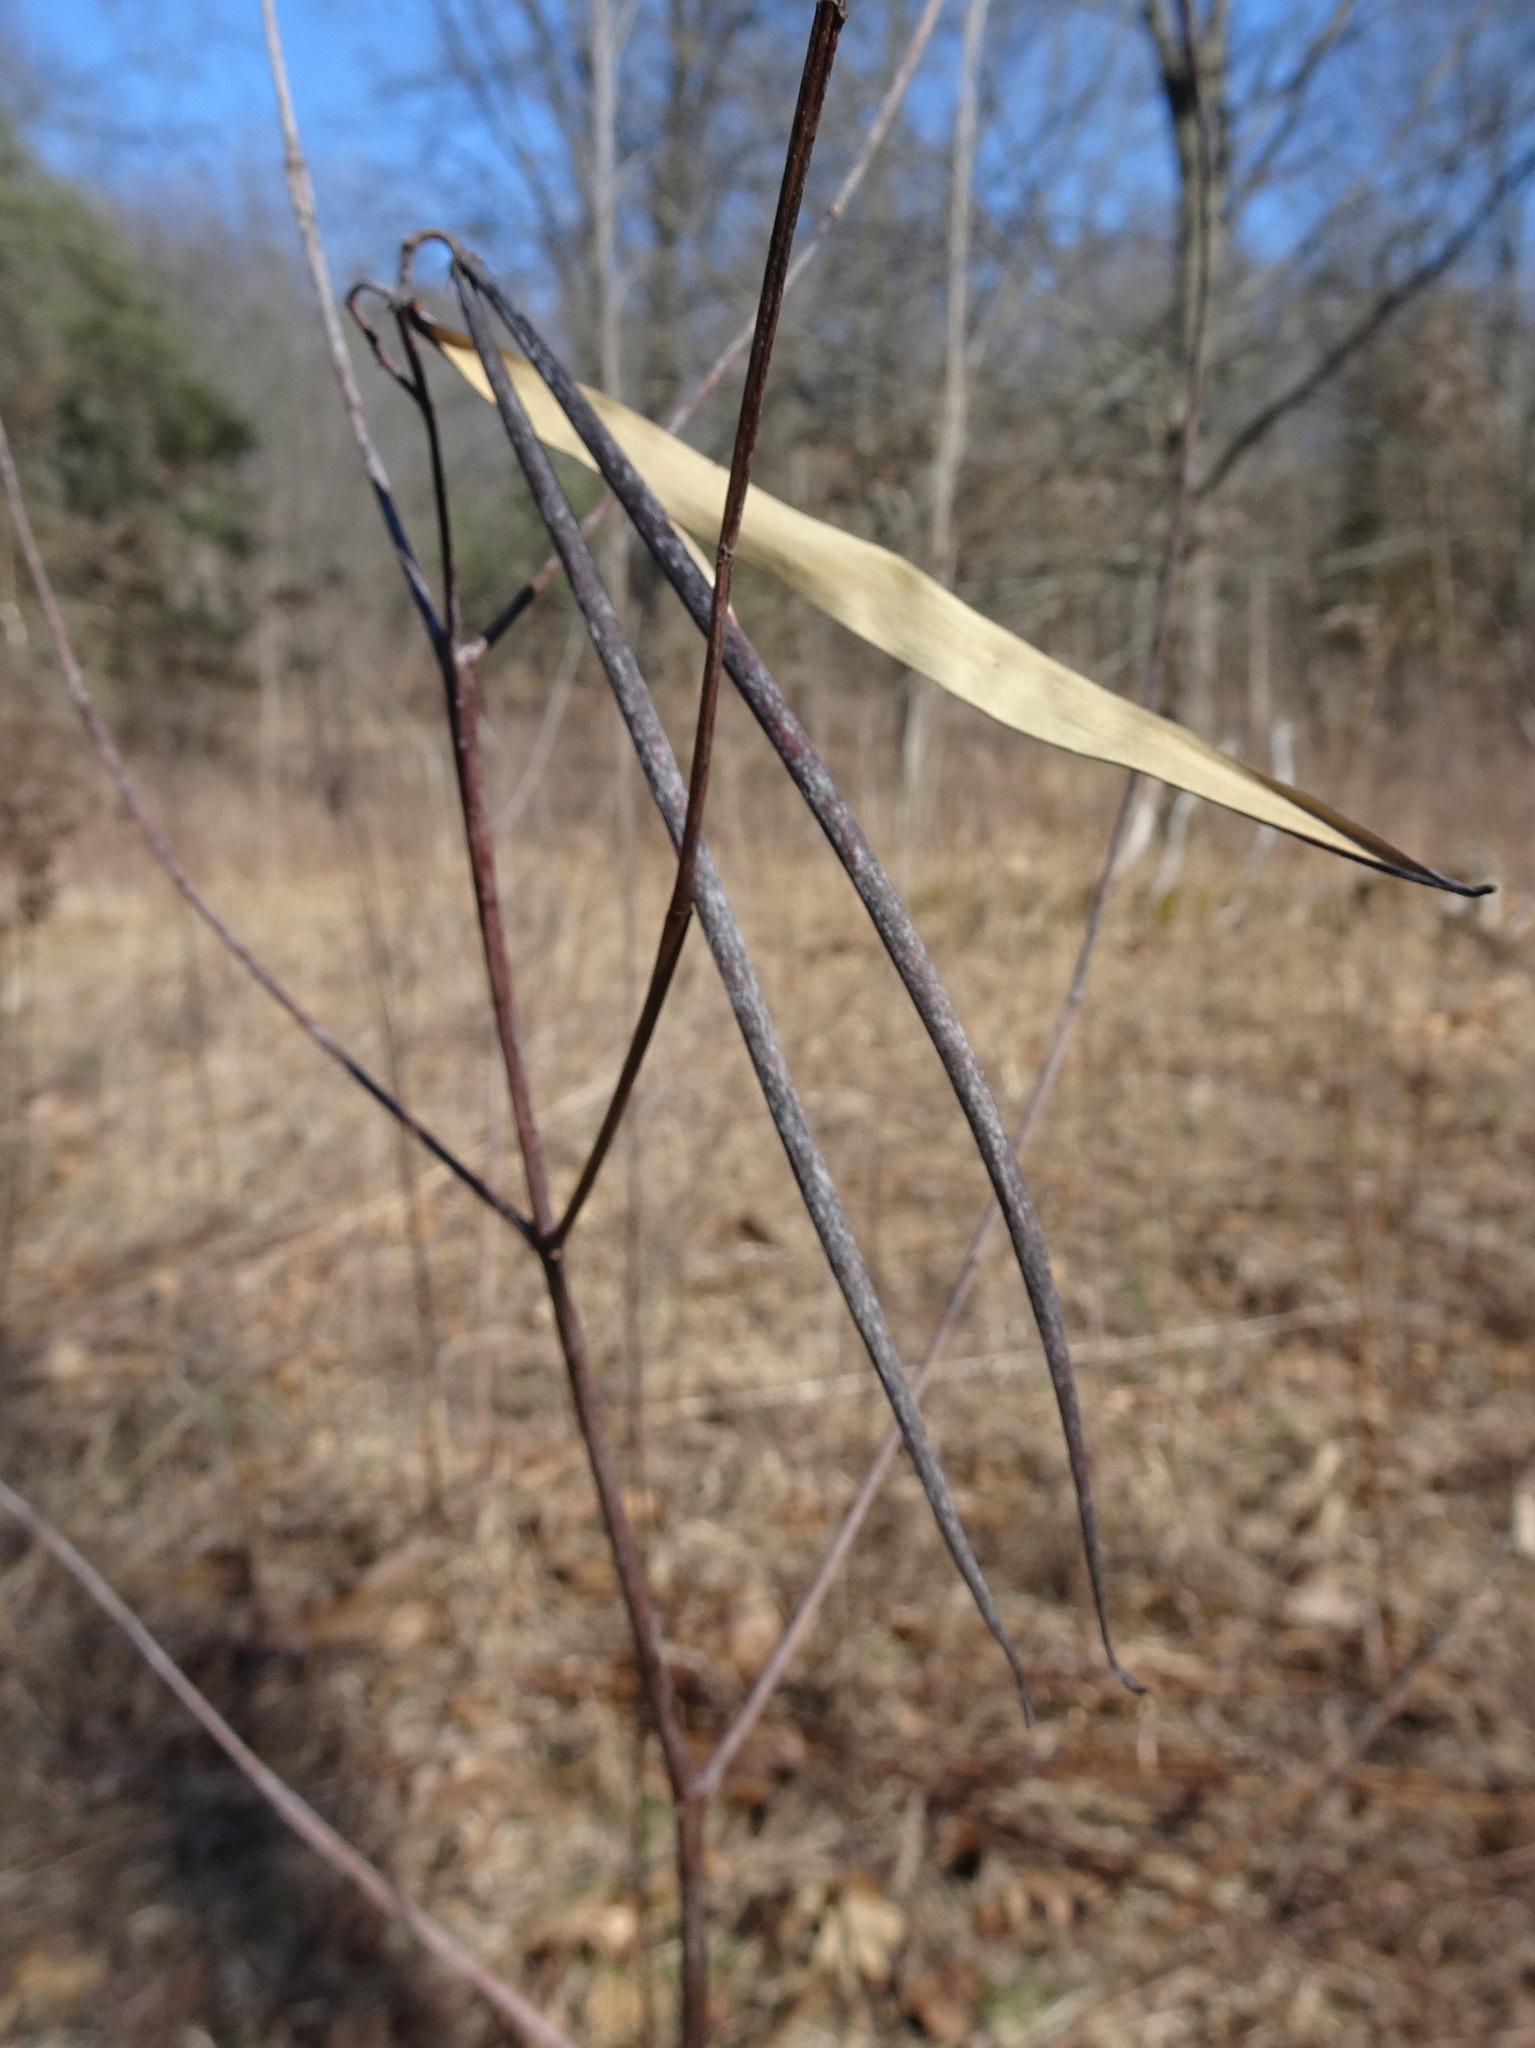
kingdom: Plantae
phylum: Tracheophyta
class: Magnoliopsida
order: Gentianales
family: Apocynaceae
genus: Apocynum
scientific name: Apocynum cannabinum
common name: Hemp dogbane
